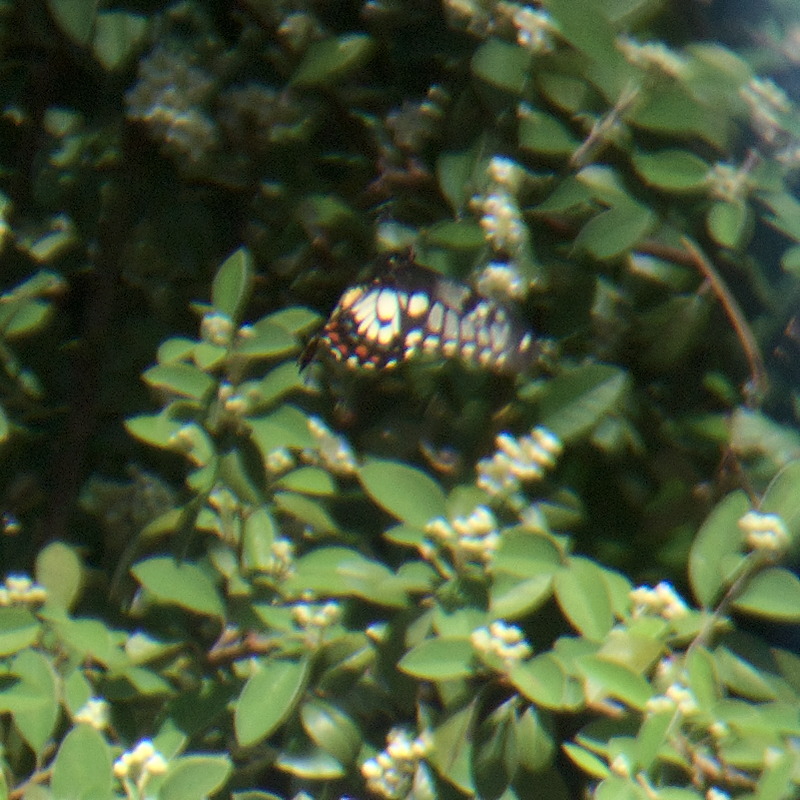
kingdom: Animalia
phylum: Arthropoda
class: Insecta
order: Lepidoptera
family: Papilionidae
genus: Papilio
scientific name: Papilio anactus
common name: Dingy swallowtail
